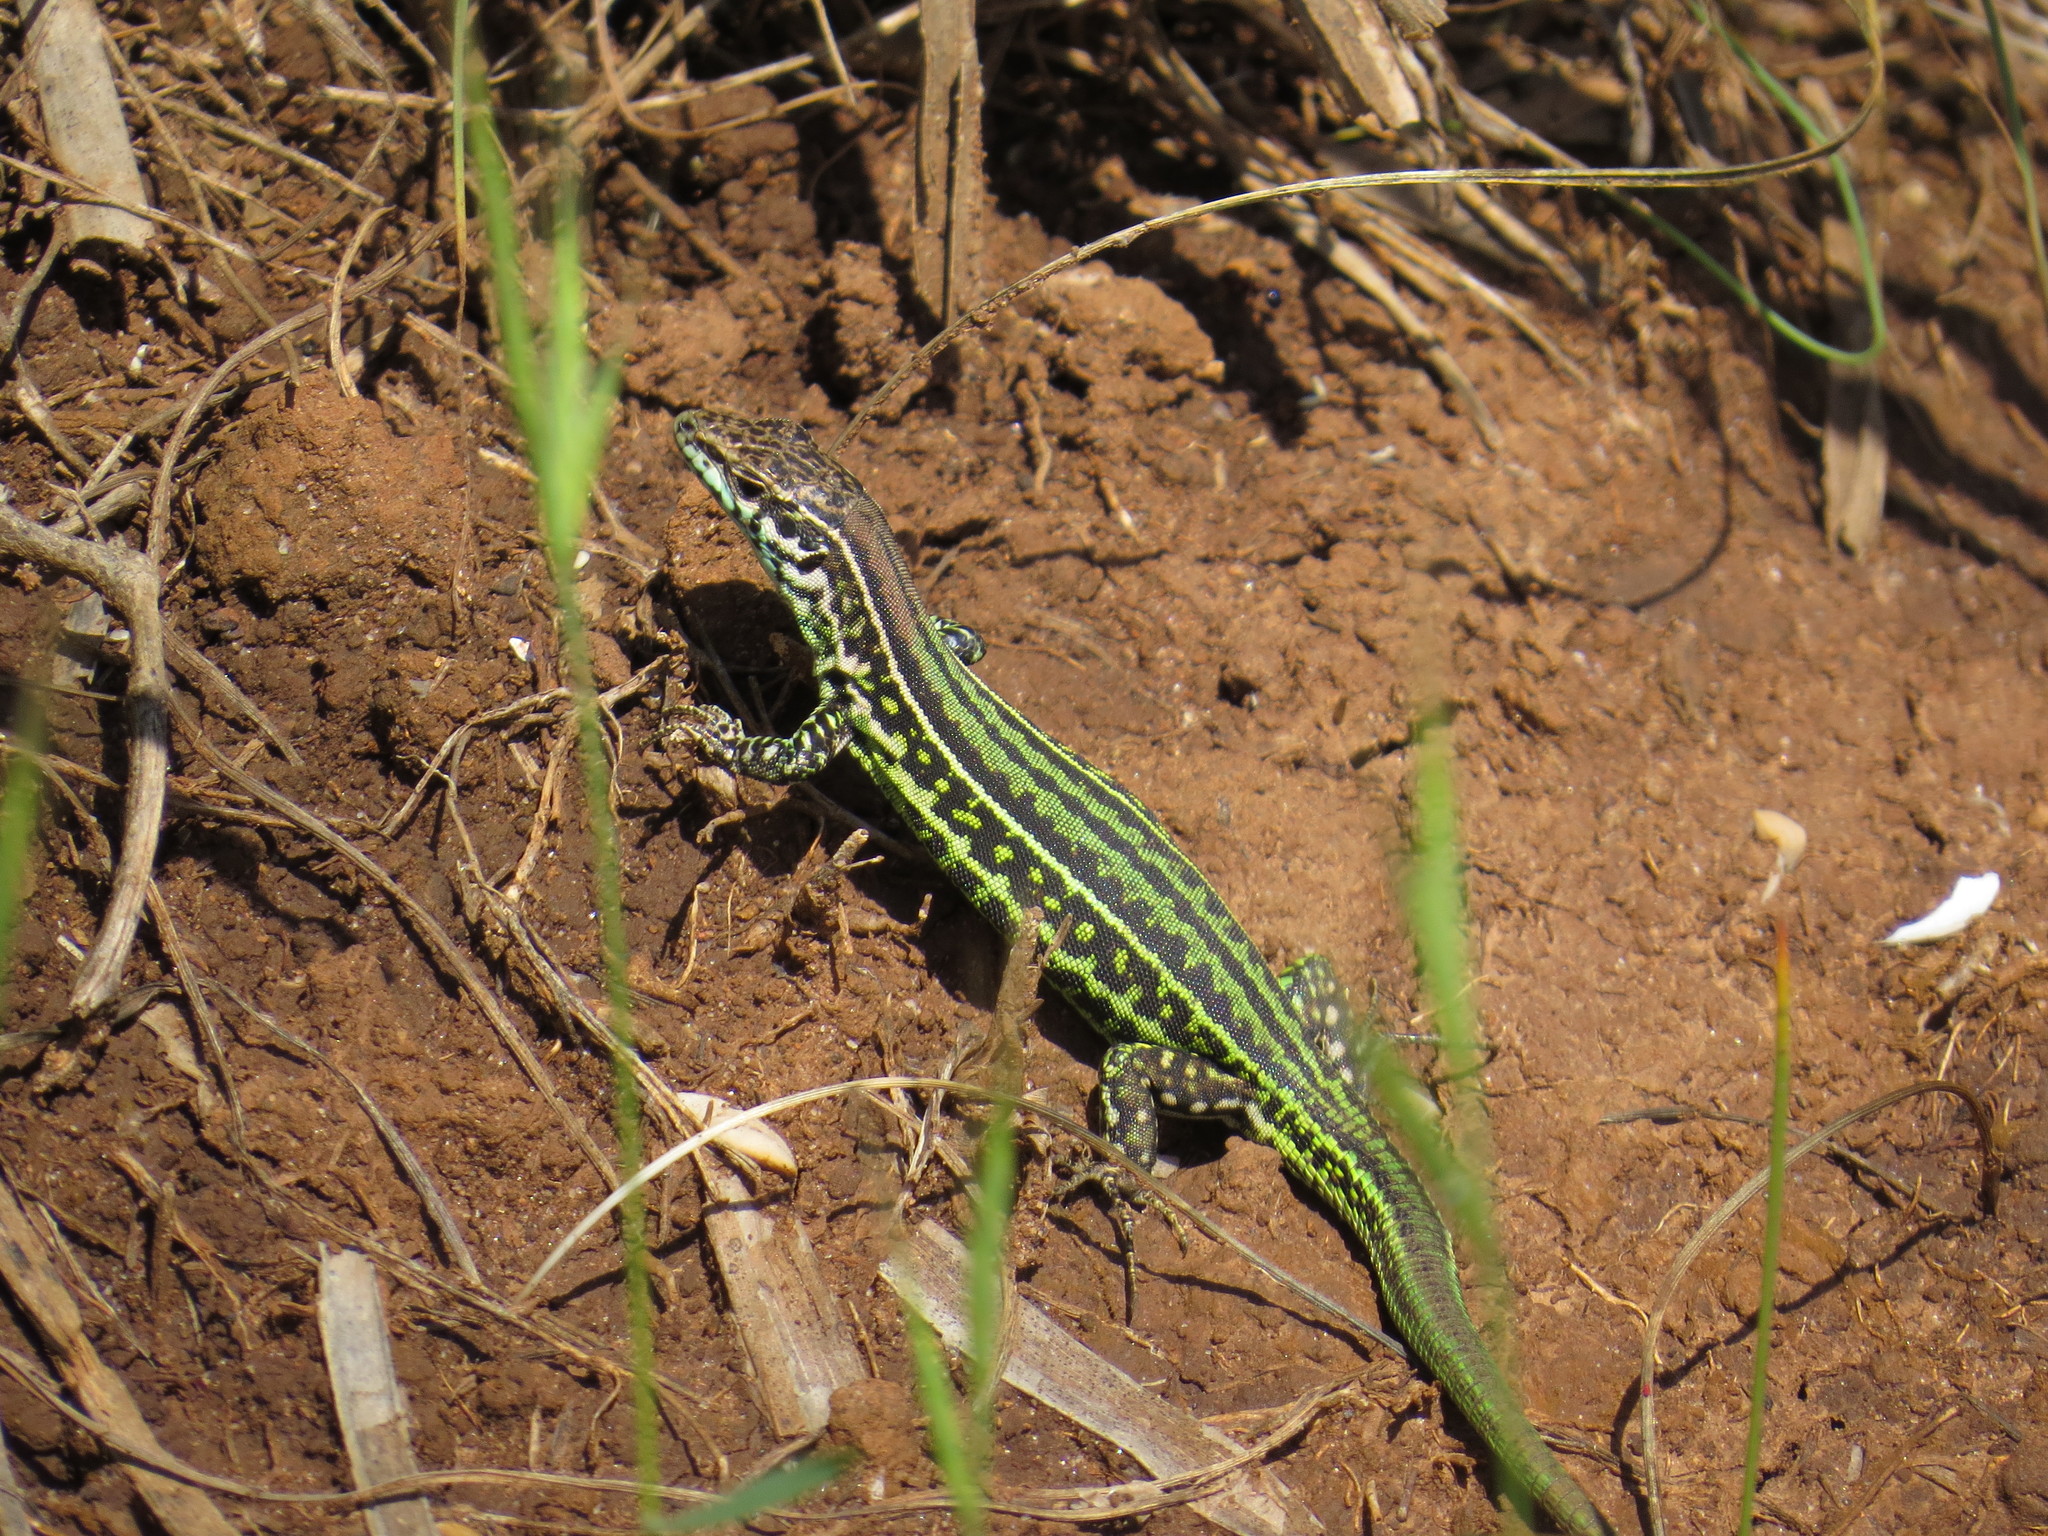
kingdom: Animalia
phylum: Chordata
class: Squamata
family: Lacertidae
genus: Podarcis
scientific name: Podarcis tiliguerta
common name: Tyrrhenian wall lizard
